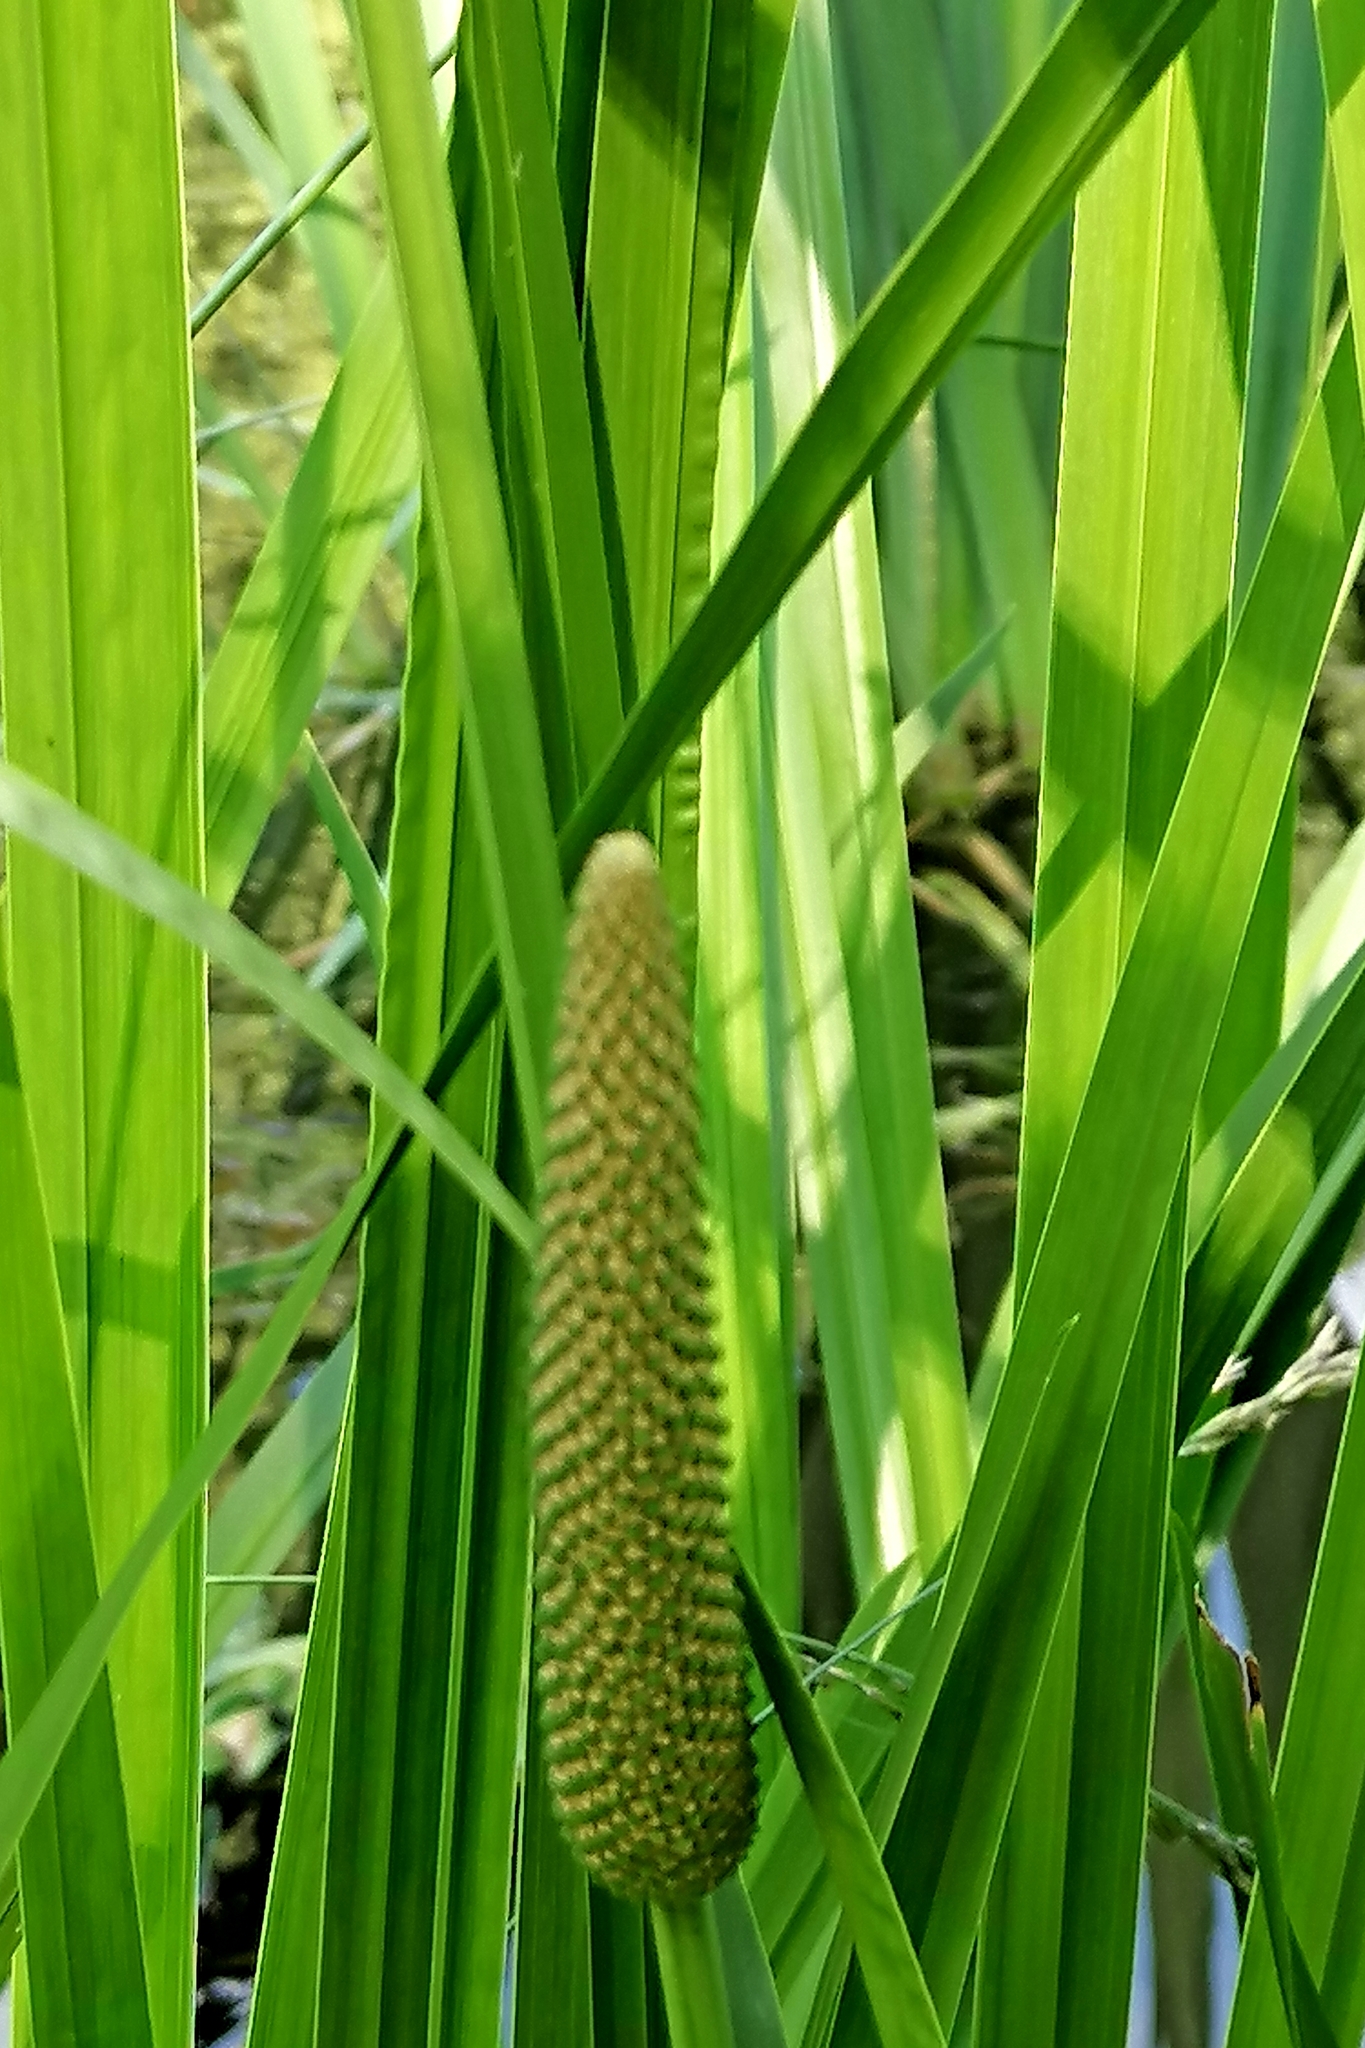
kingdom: Plantae
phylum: Tracheophyta
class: Liliopsida
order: Acorales
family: Acoraceae
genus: Acorus
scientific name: Acorus calamus
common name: Sweet-flag
